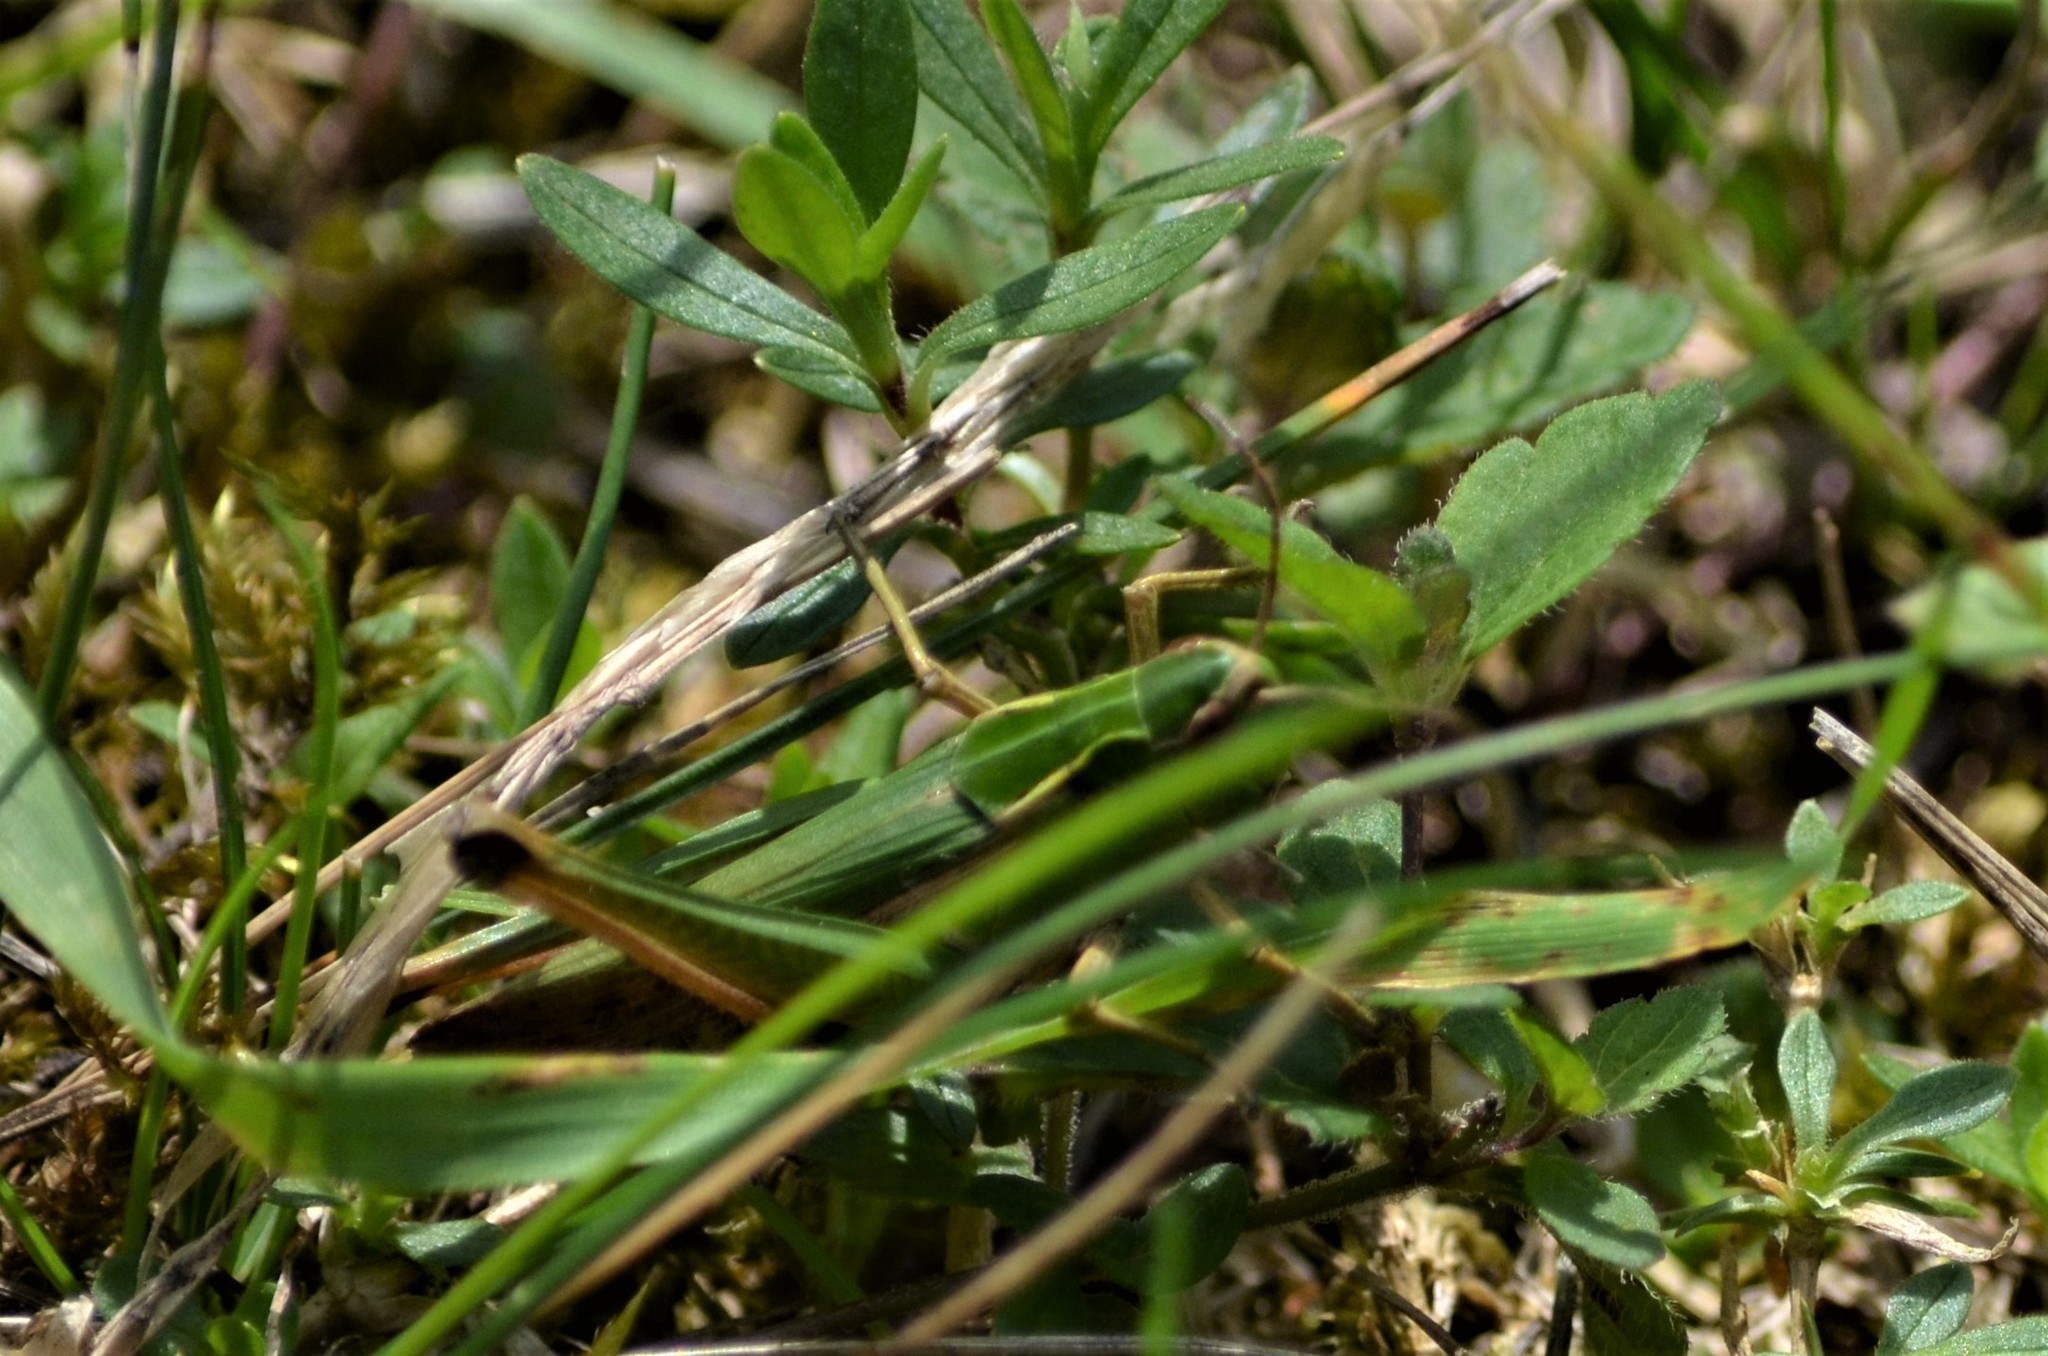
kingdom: Animalia
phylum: Arthropoda
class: Insecta
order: Orthoptera
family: Acrididae
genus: Omocestus
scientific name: Omocestus viridulus
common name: Common green grasshopper
